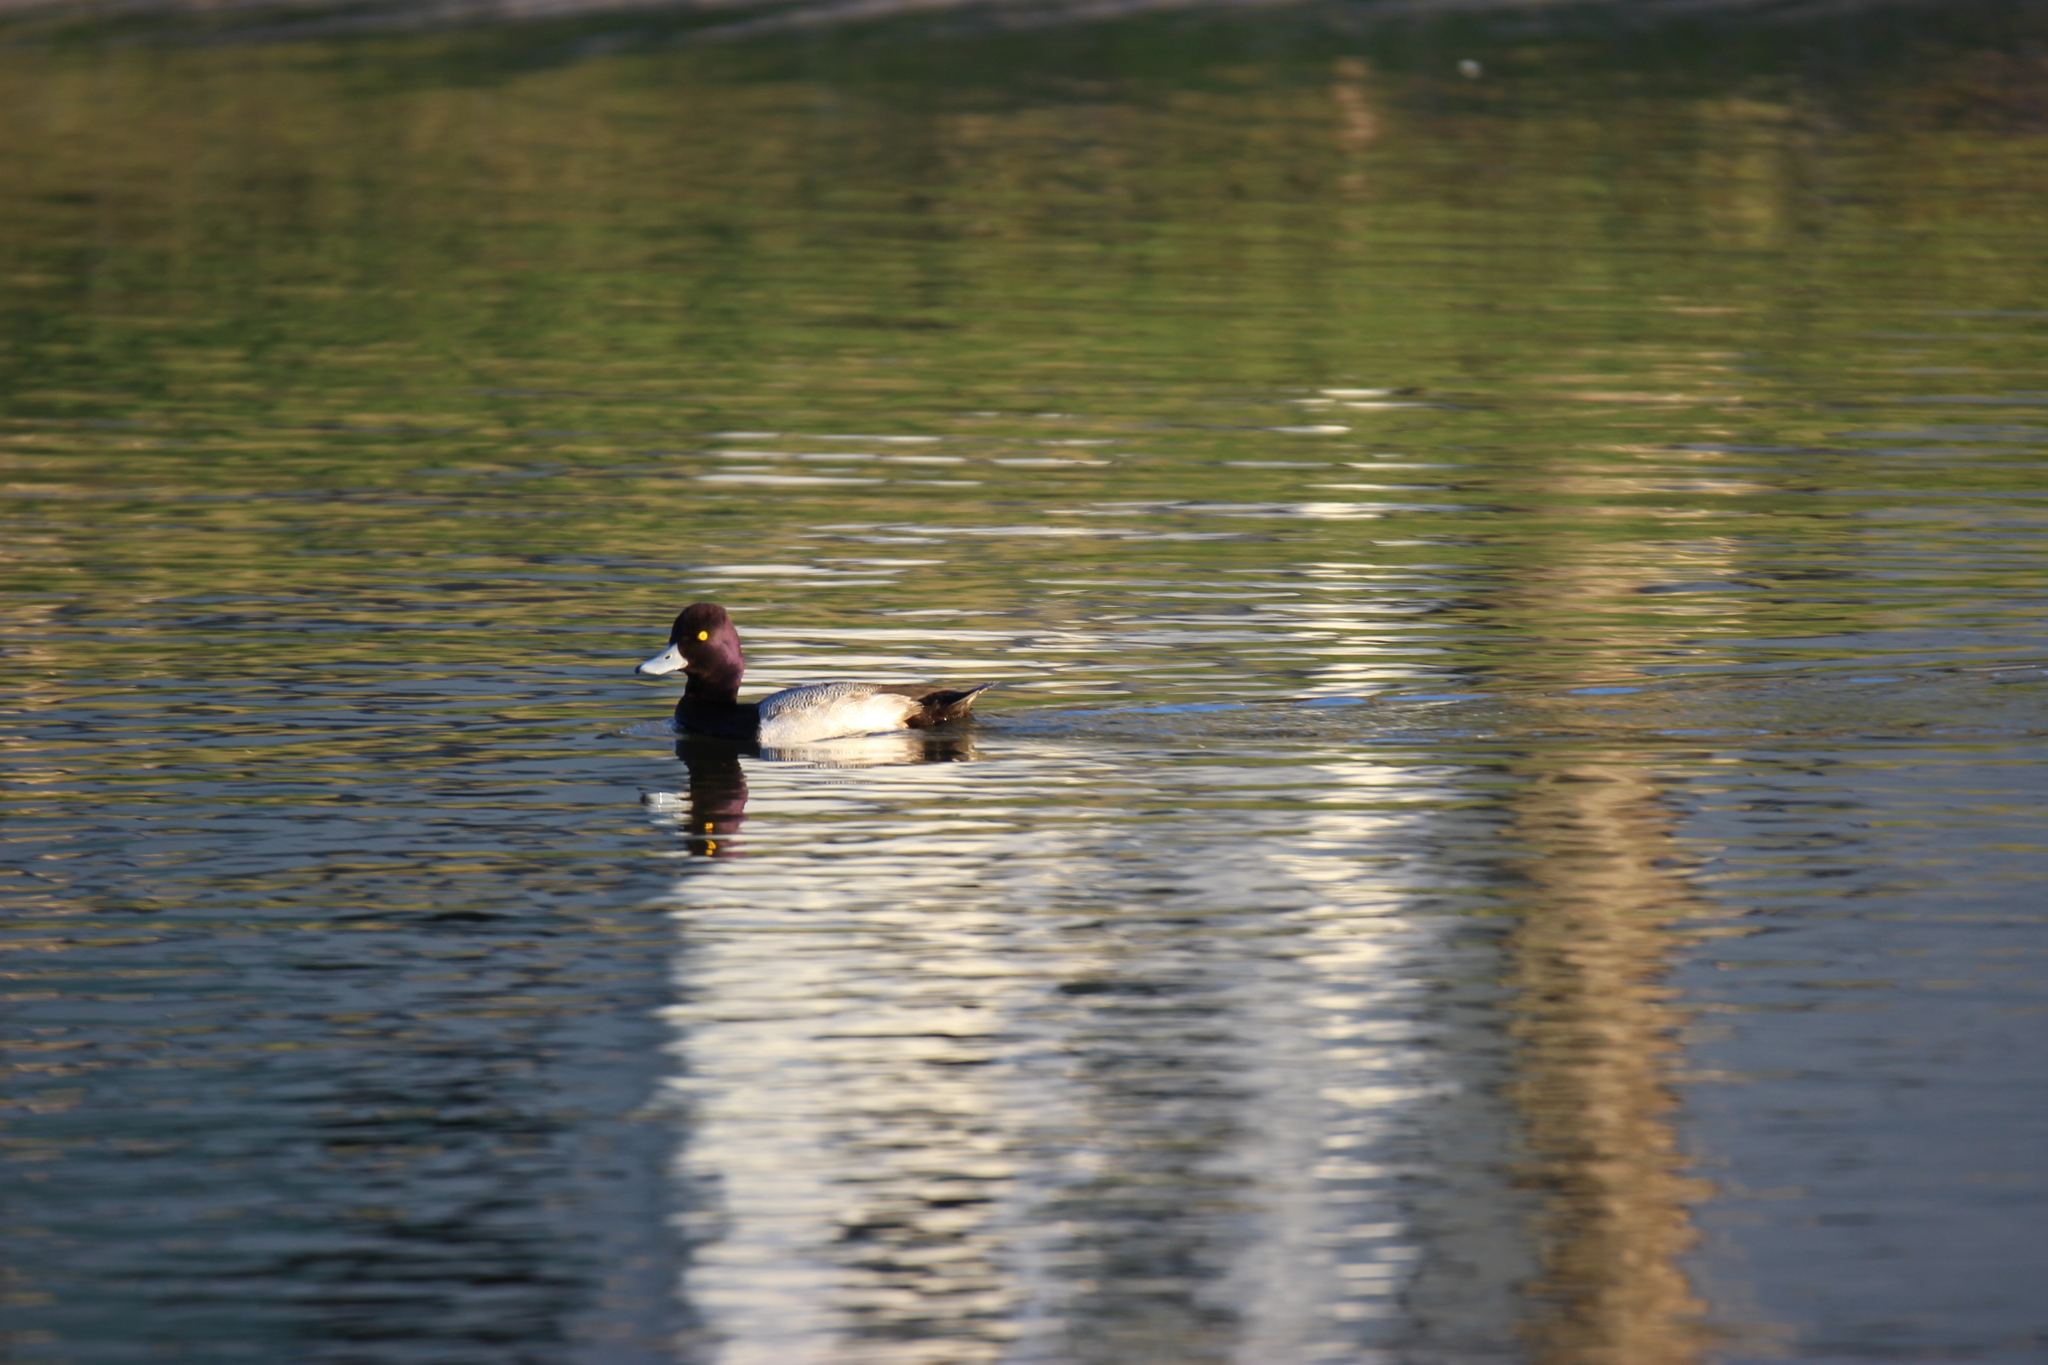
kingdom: Animalia
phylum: Chordata
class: Aves
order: Anseriformes
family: Anatidae
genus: Aythya
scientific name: Aythya affinis
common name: Lesser scaup
